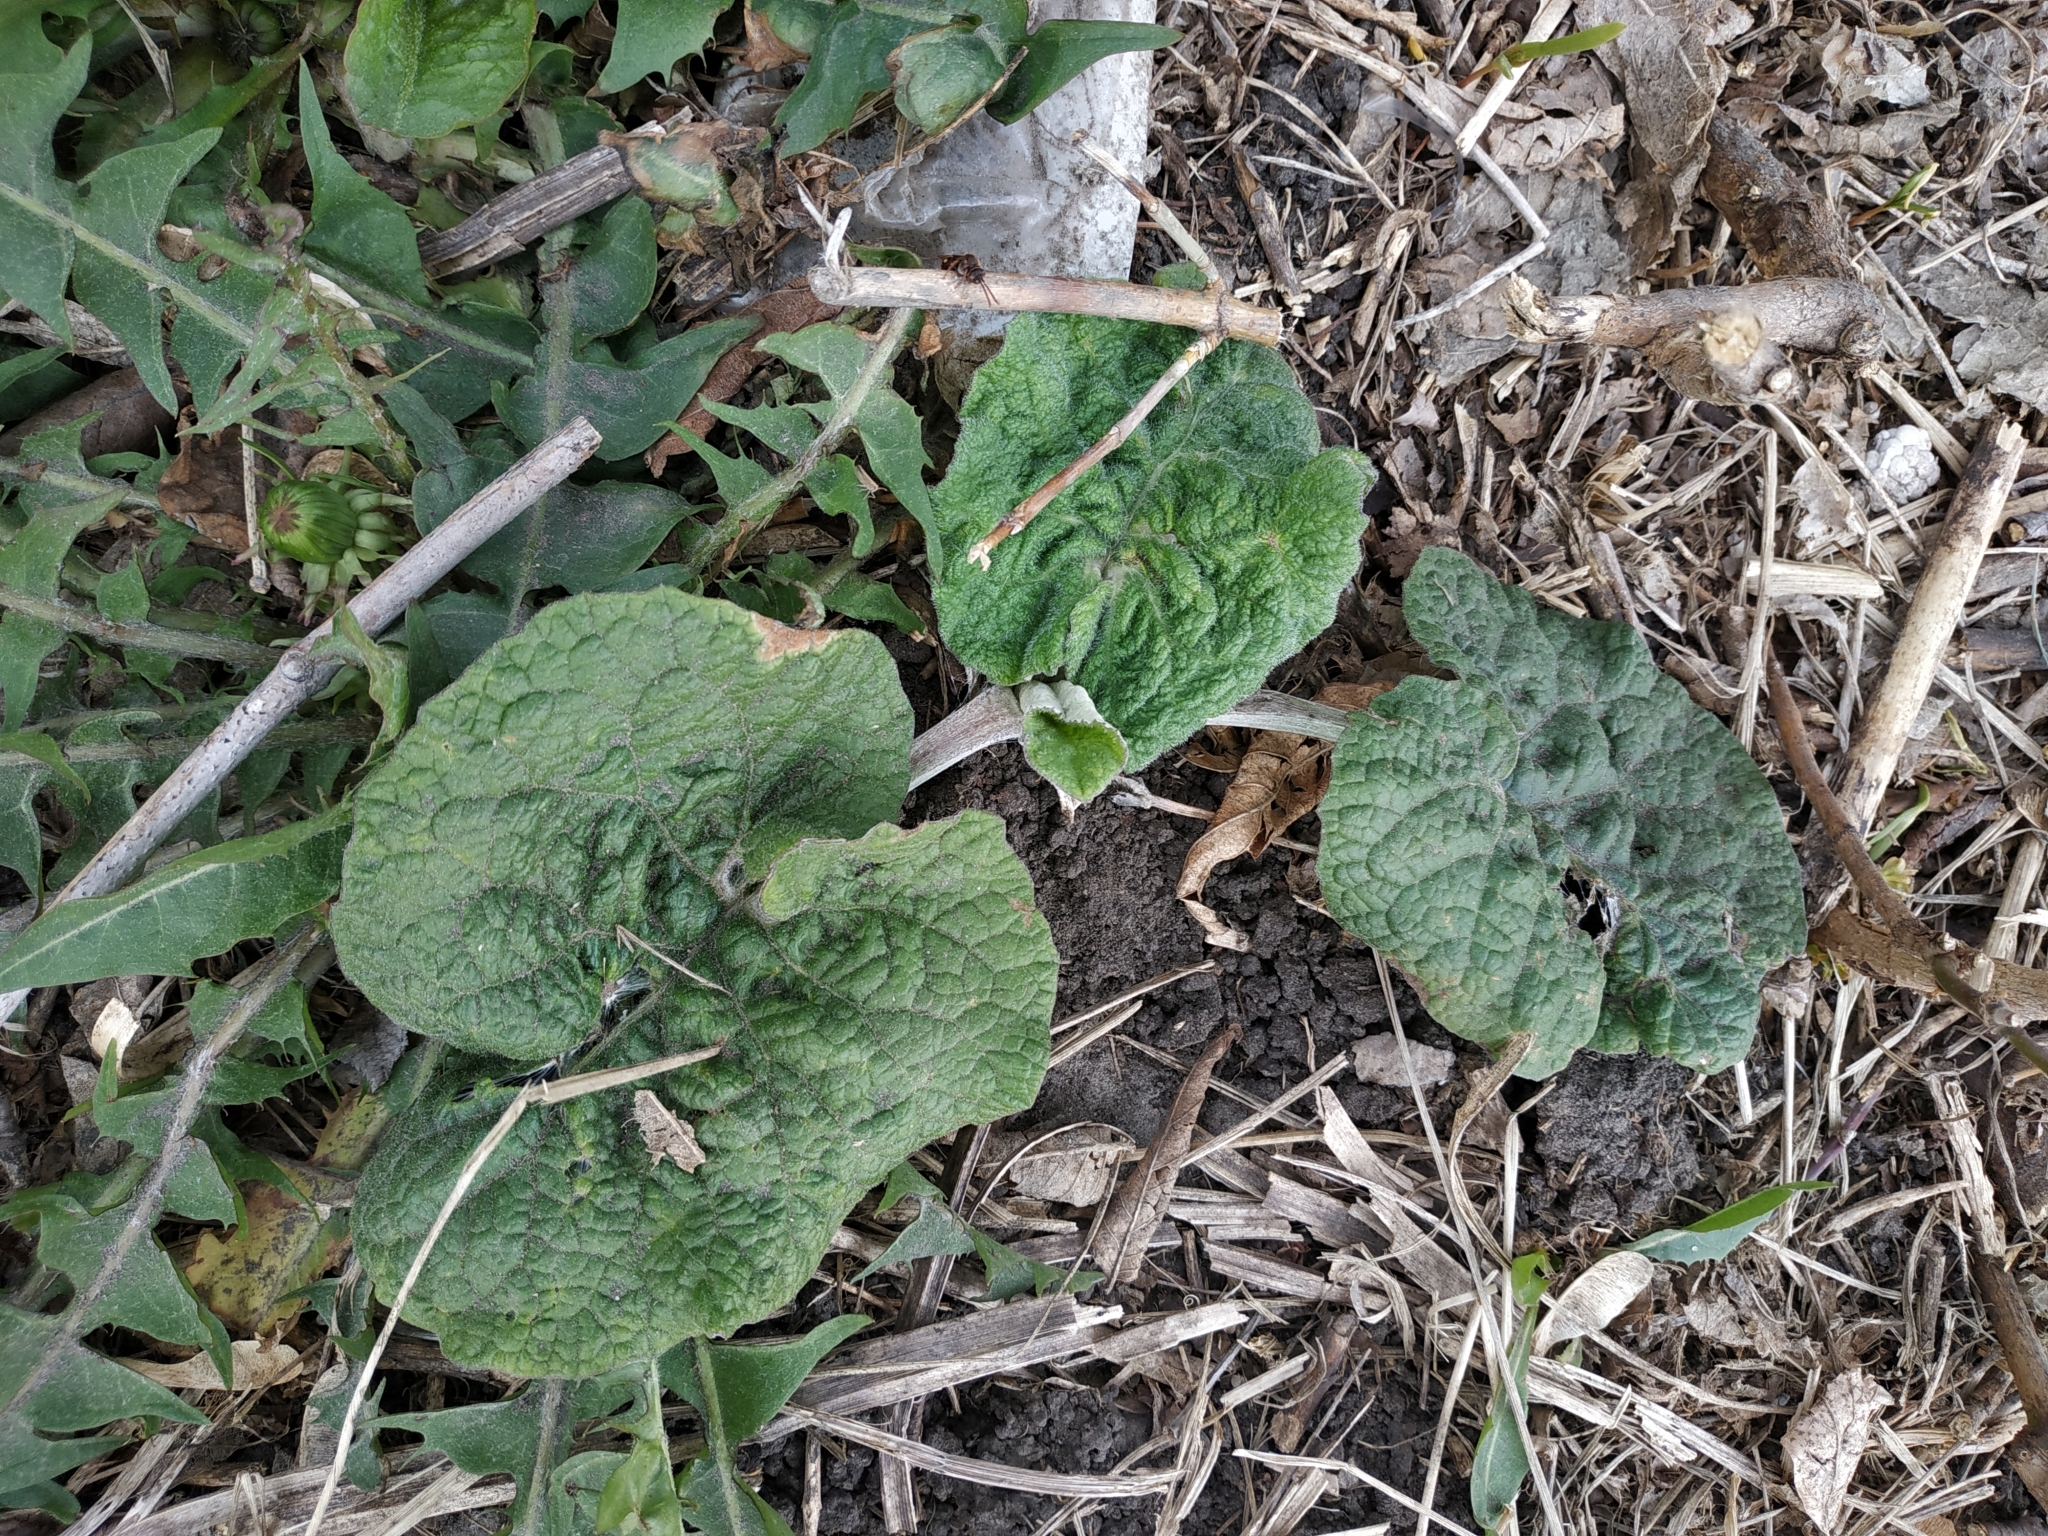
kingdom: Plantae
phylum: Tracheophyta
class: Magnoliopsida
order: Asterales
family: Asteraceae
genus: Arctium
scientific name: Arctium tomentosum
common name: Woolly burdock
